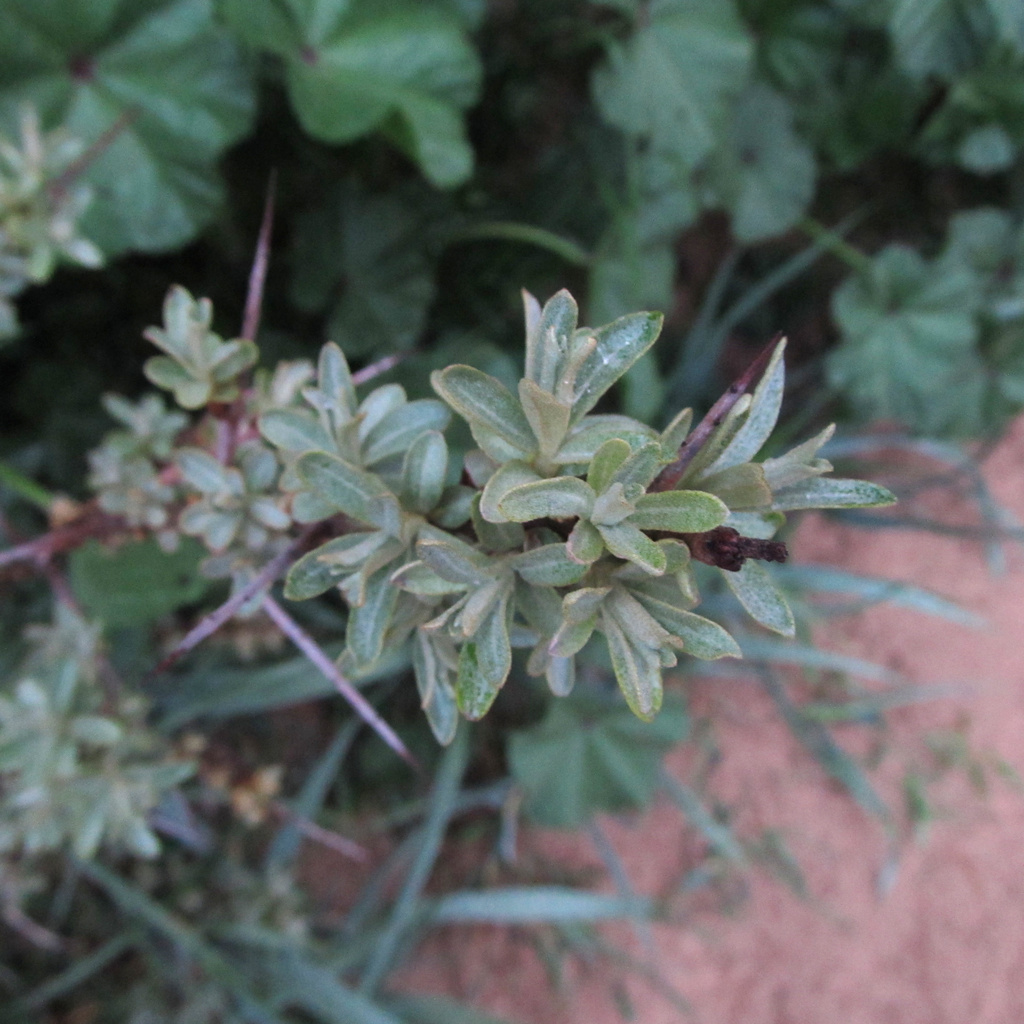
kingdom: Plantae
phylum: Tracheophyta
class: Magnoliopsida
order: Rosales
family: Elaeagnaceae
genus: Hippophae
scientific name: Hippophae rhamnoides
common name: Sea-buckthorn
